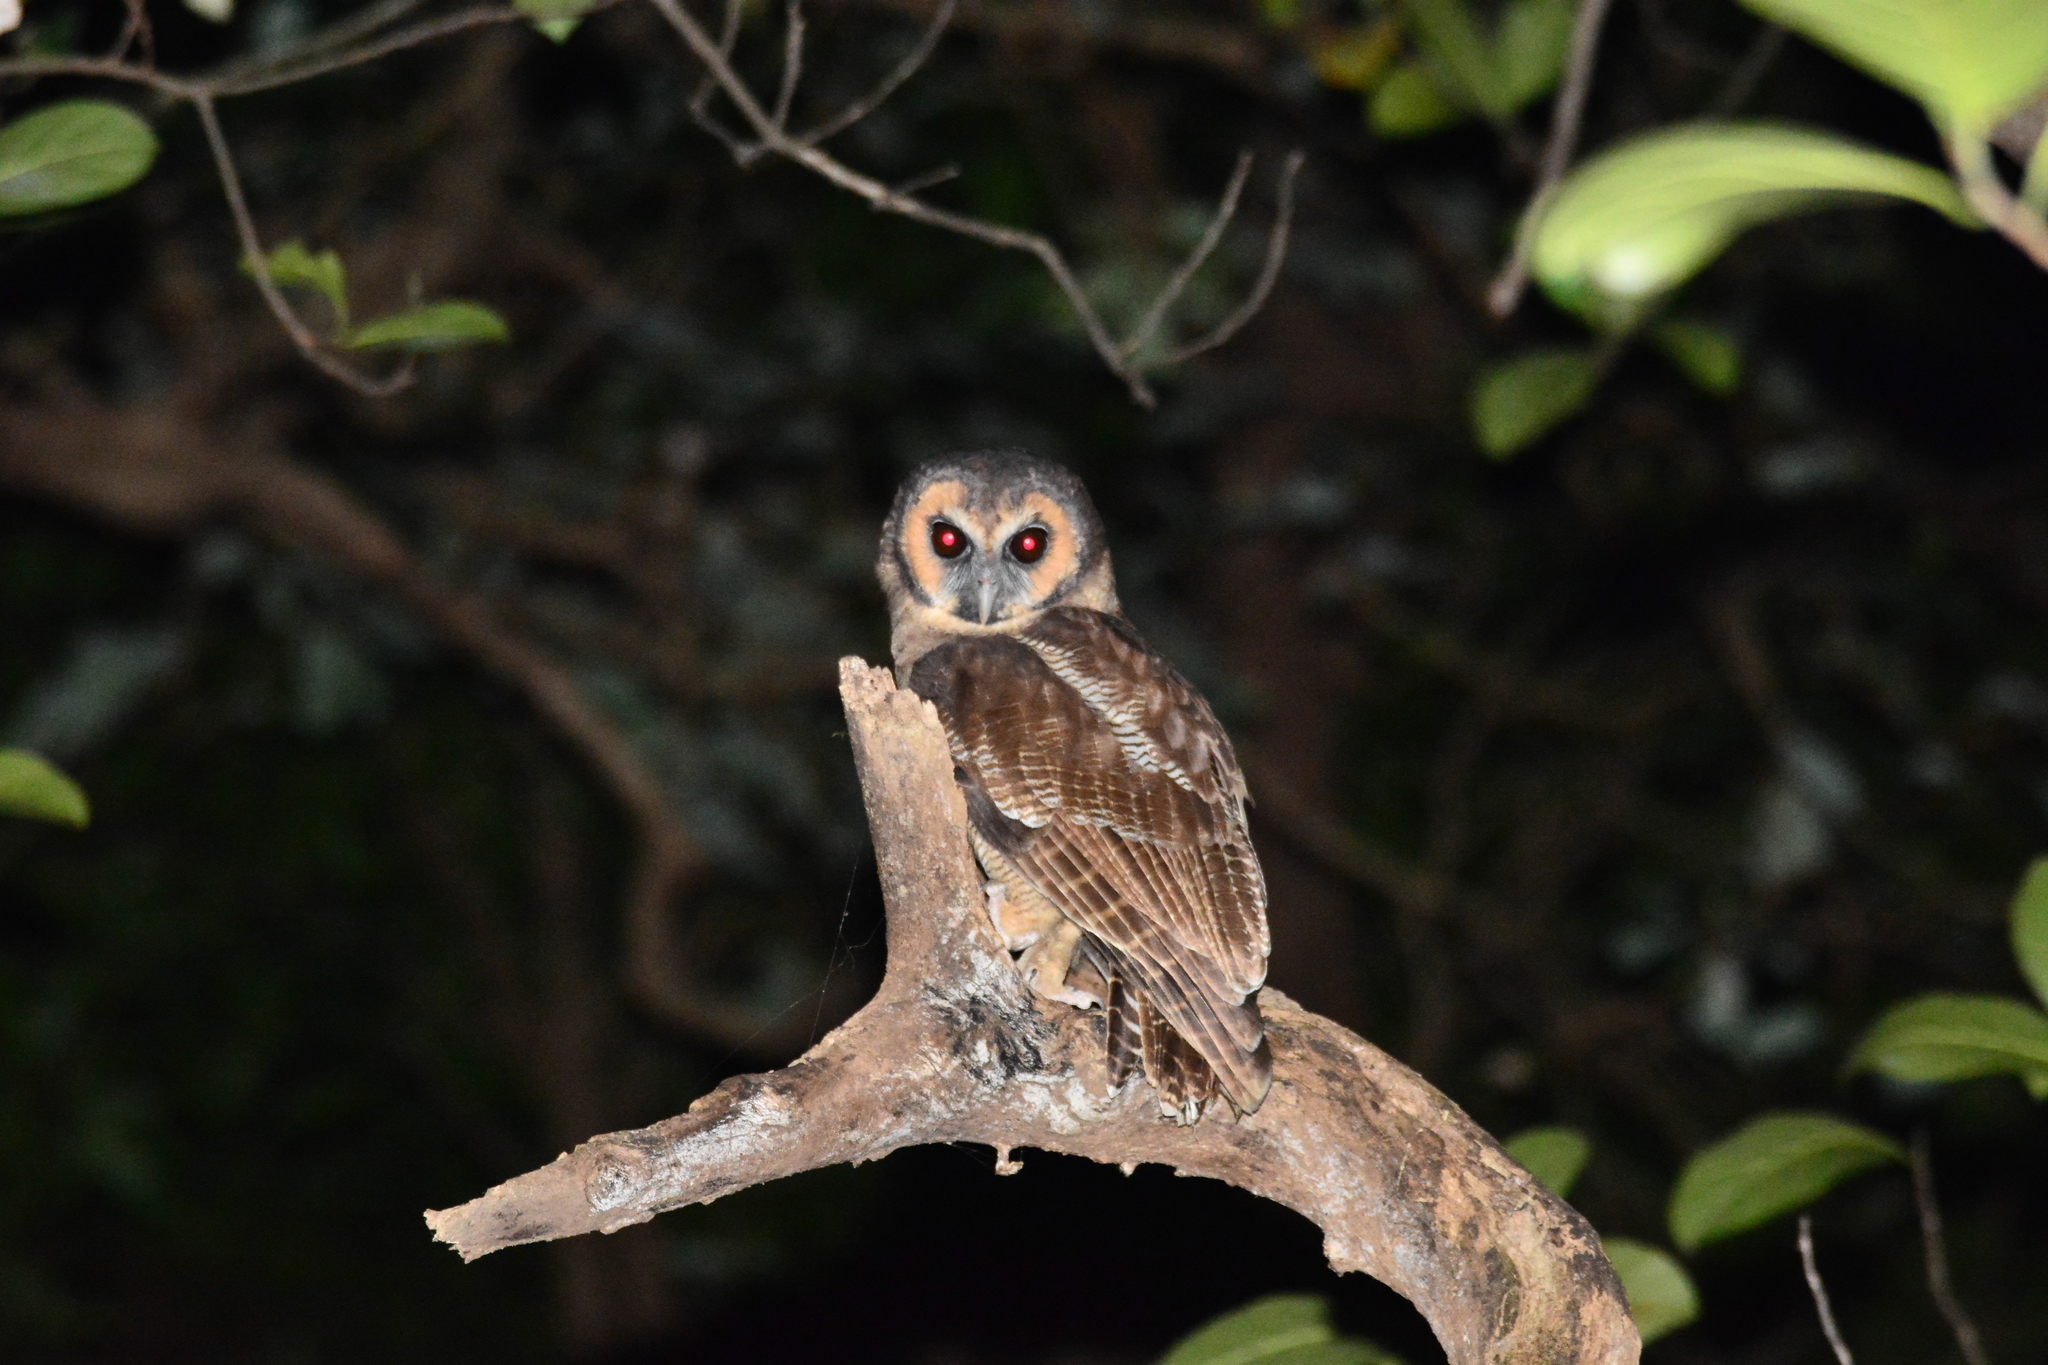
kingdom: Animalia
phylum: Chordata
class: Aves
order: Strigiformes
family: Strigidae
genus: Strix
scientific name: Strix leptogrammica
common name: Brown wood owl
